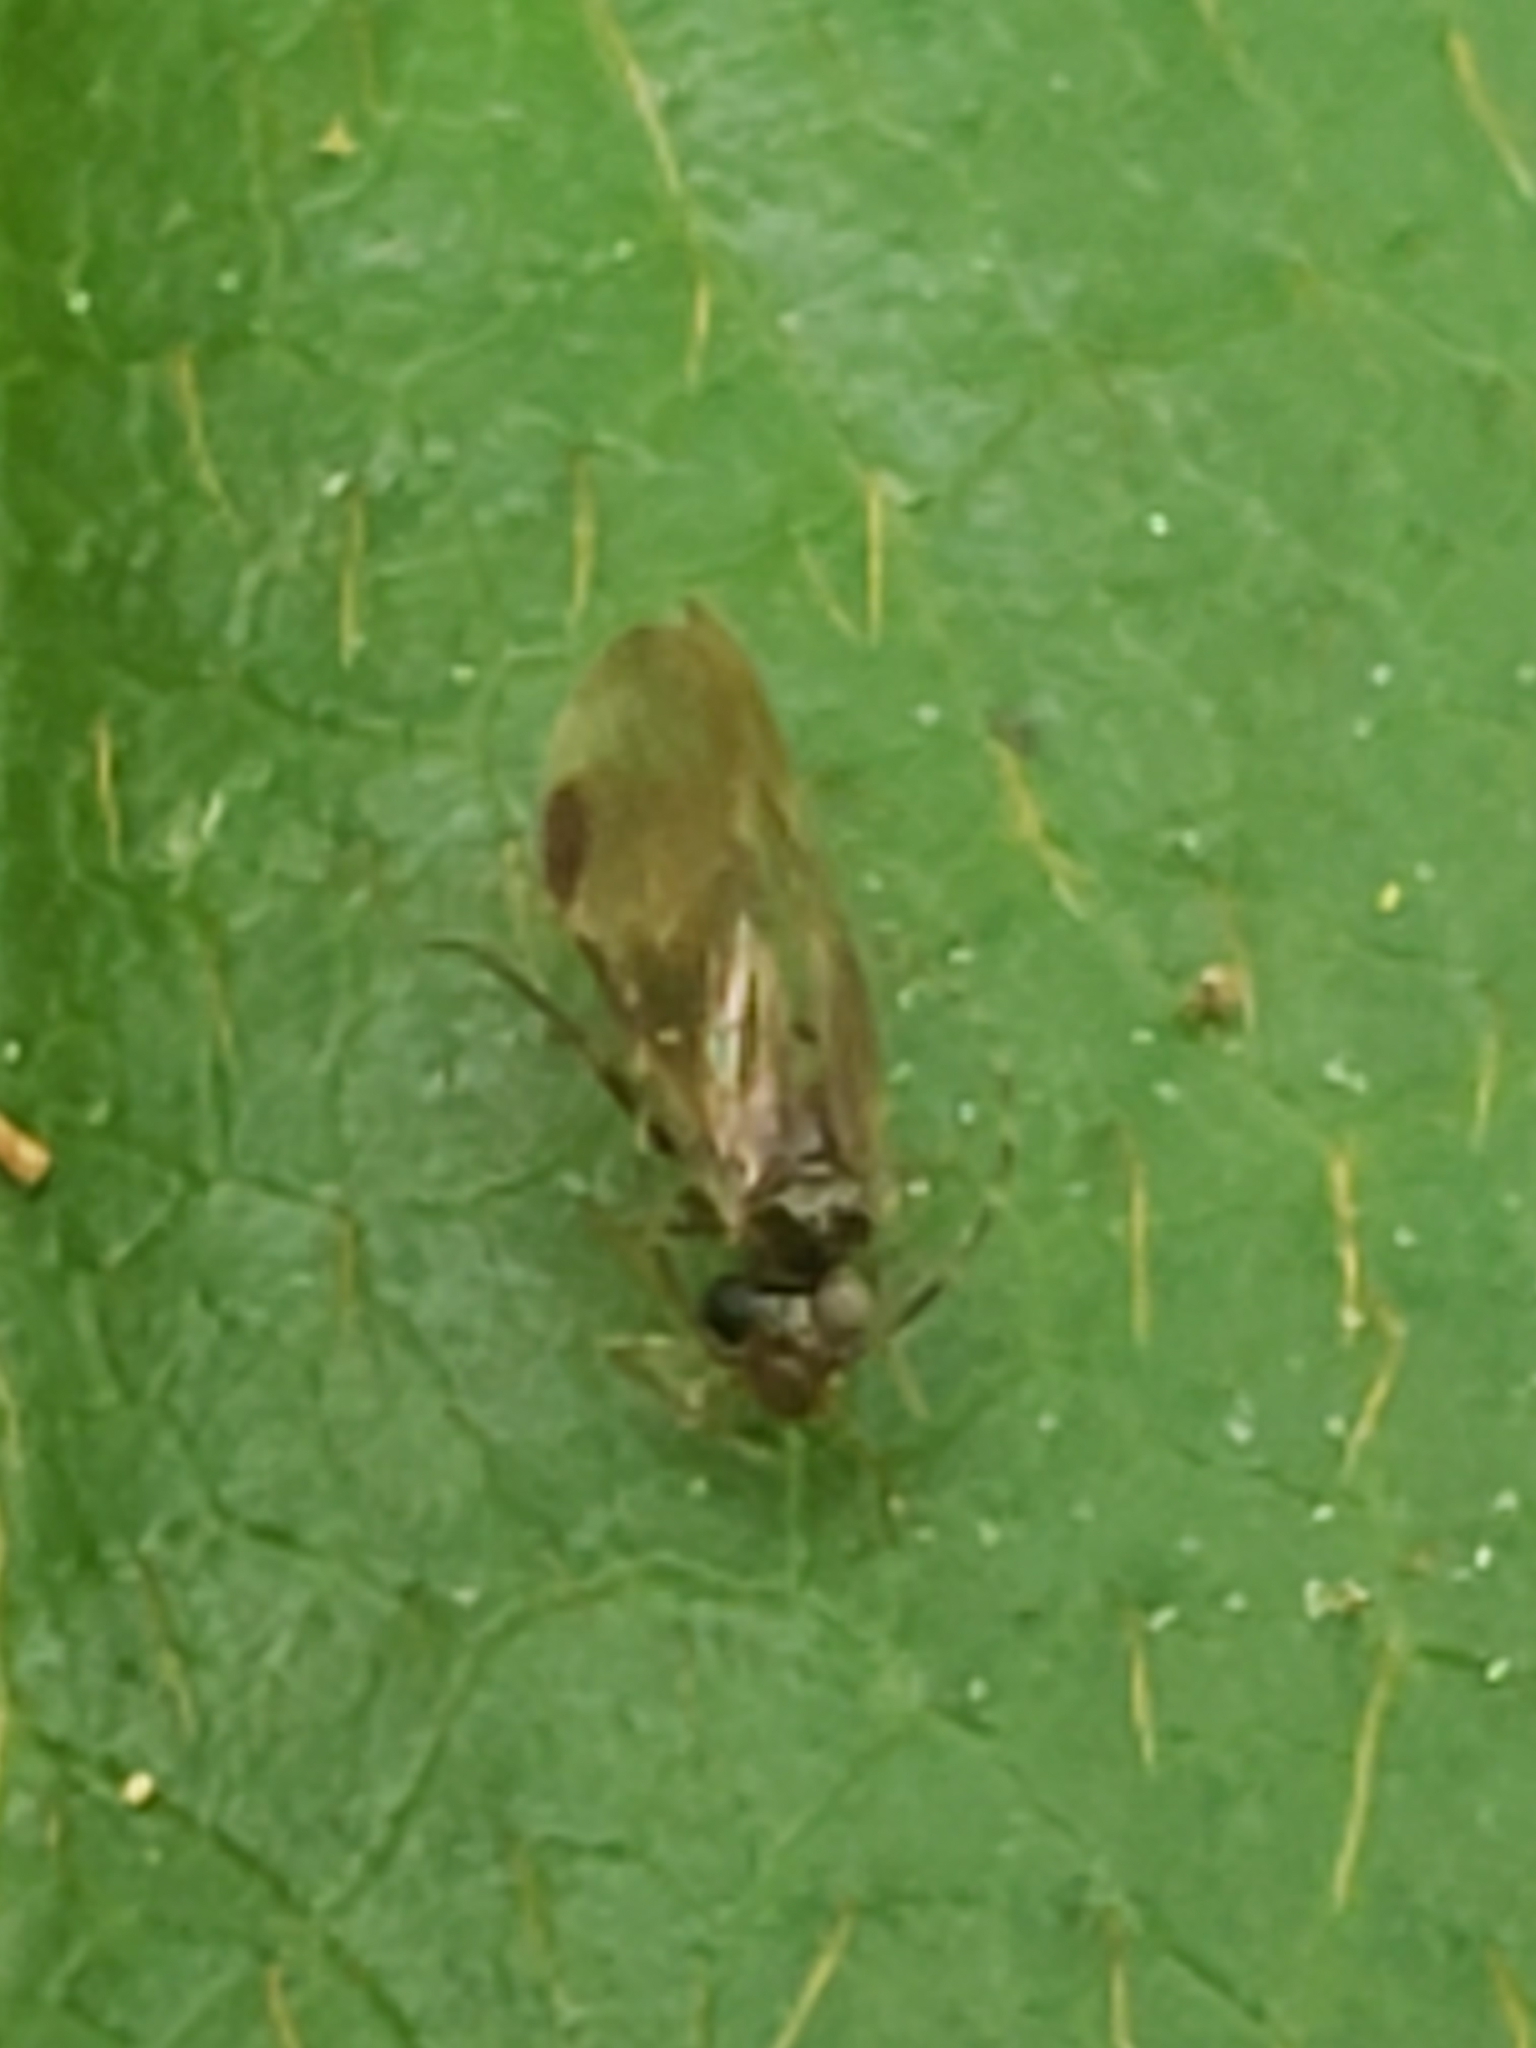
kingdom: Animalia
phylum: Arthropoda
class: Insecta
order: Psocodea
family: Amphipsocidae
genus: Polypsocus
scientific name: Polypsocus corruptus
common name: Corrupt barklouse
